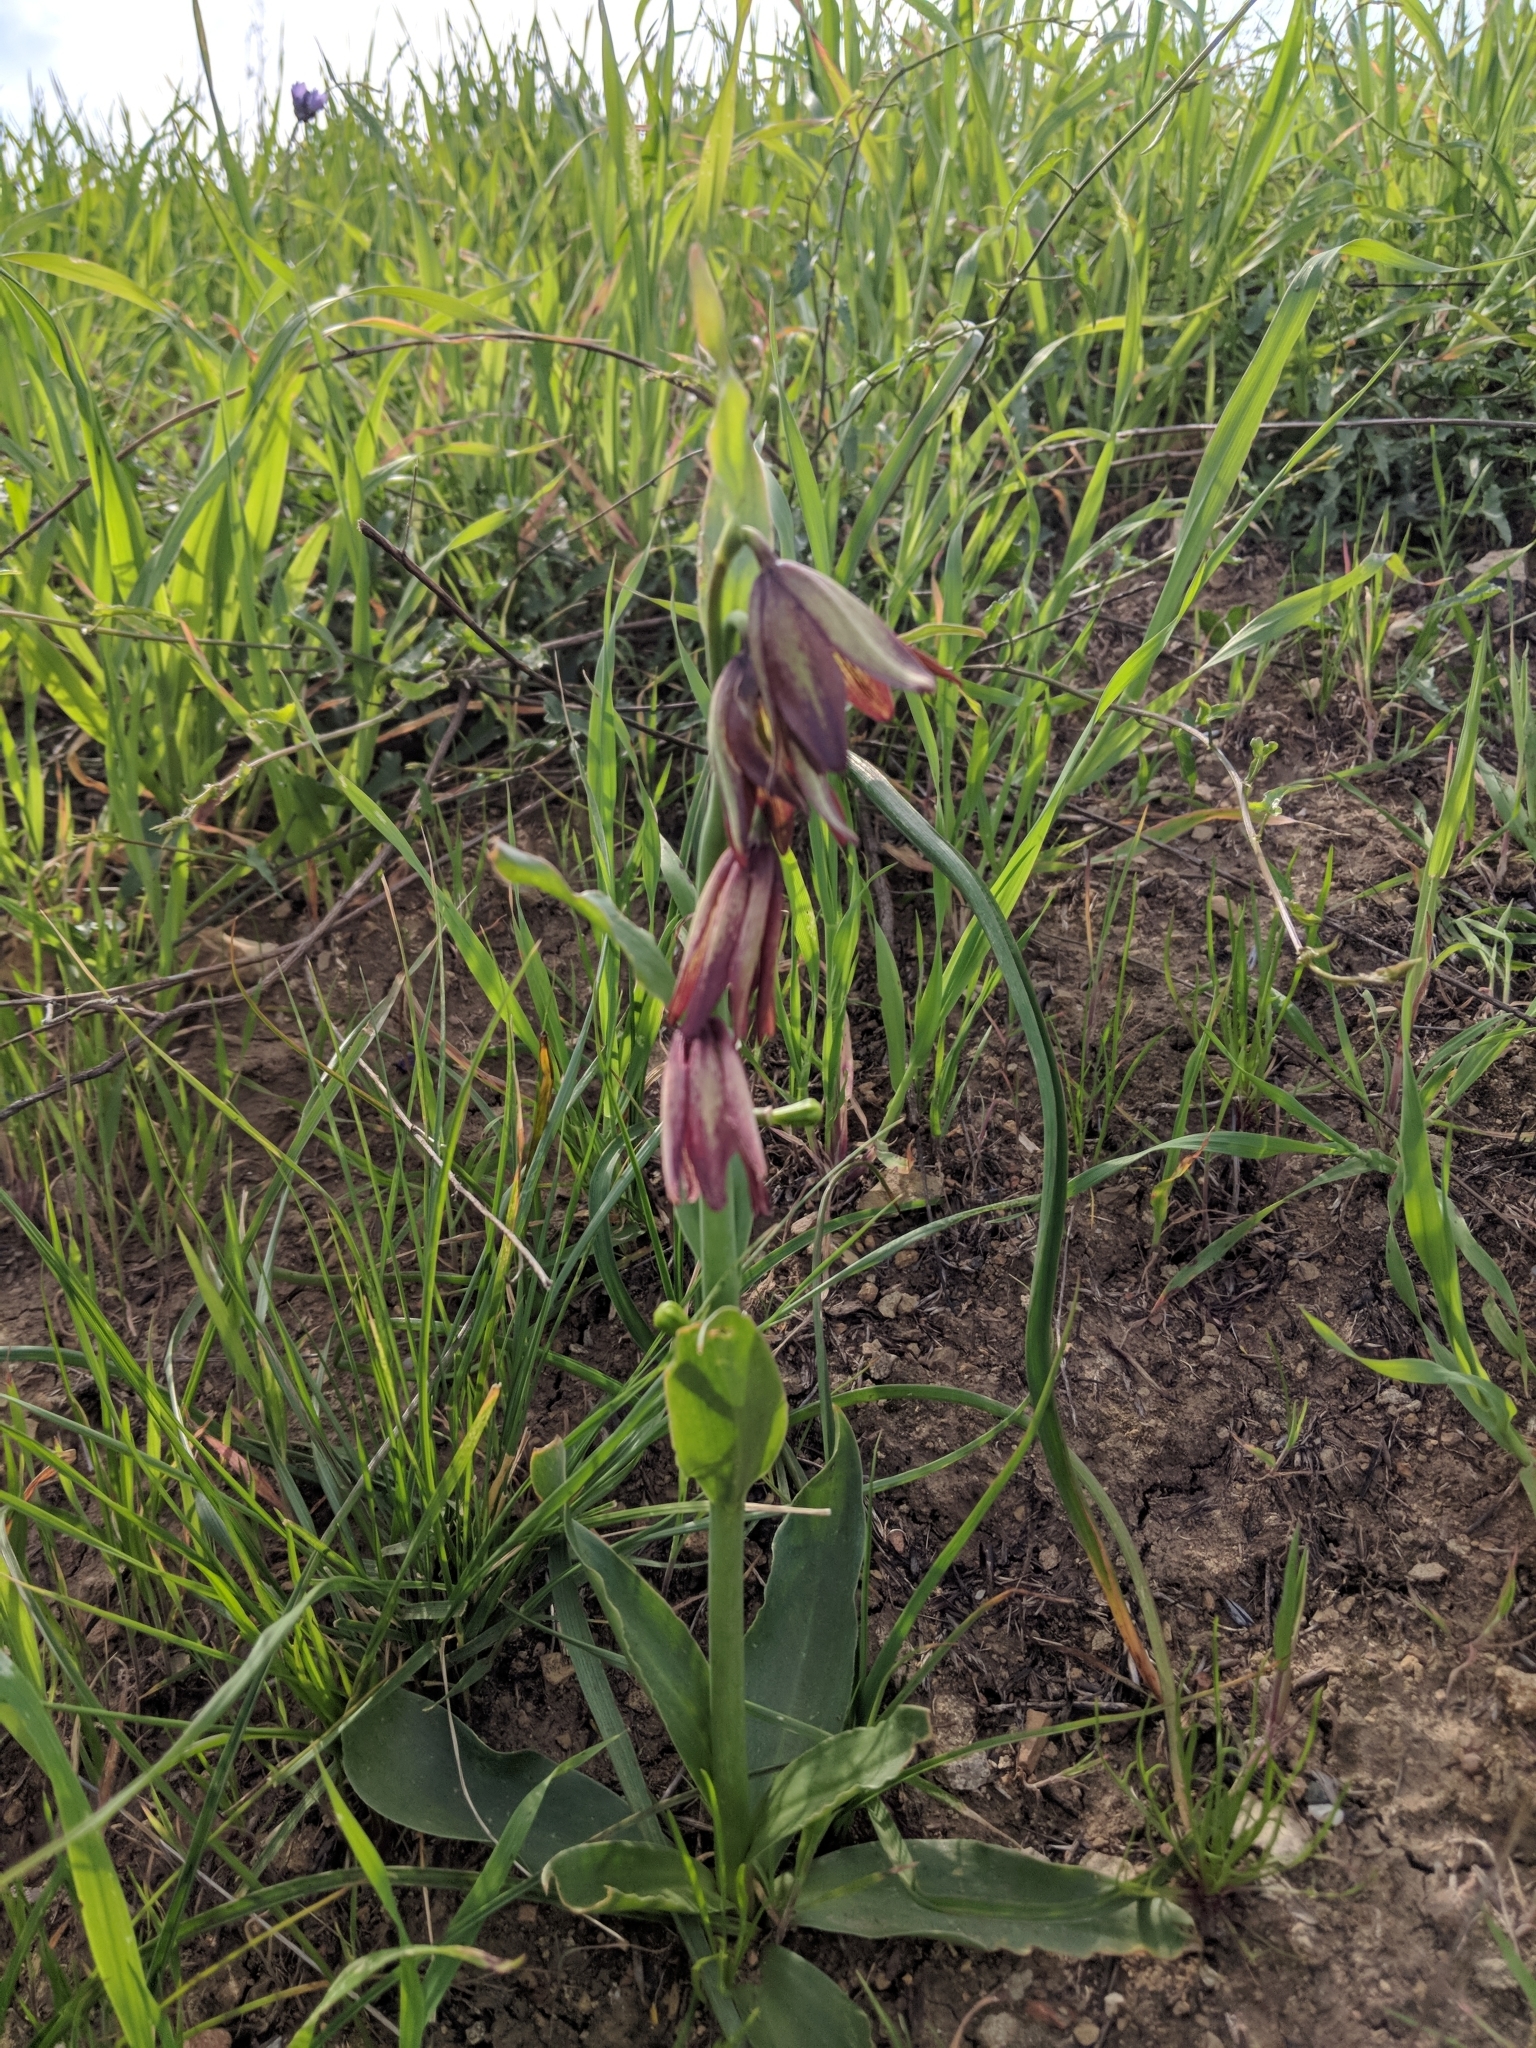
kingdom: Plantae
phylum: Tracheophyta
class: Liliopsida
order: Liliales
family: Liliaceae
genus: Fritillaria
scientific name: Fritillaria biflora
